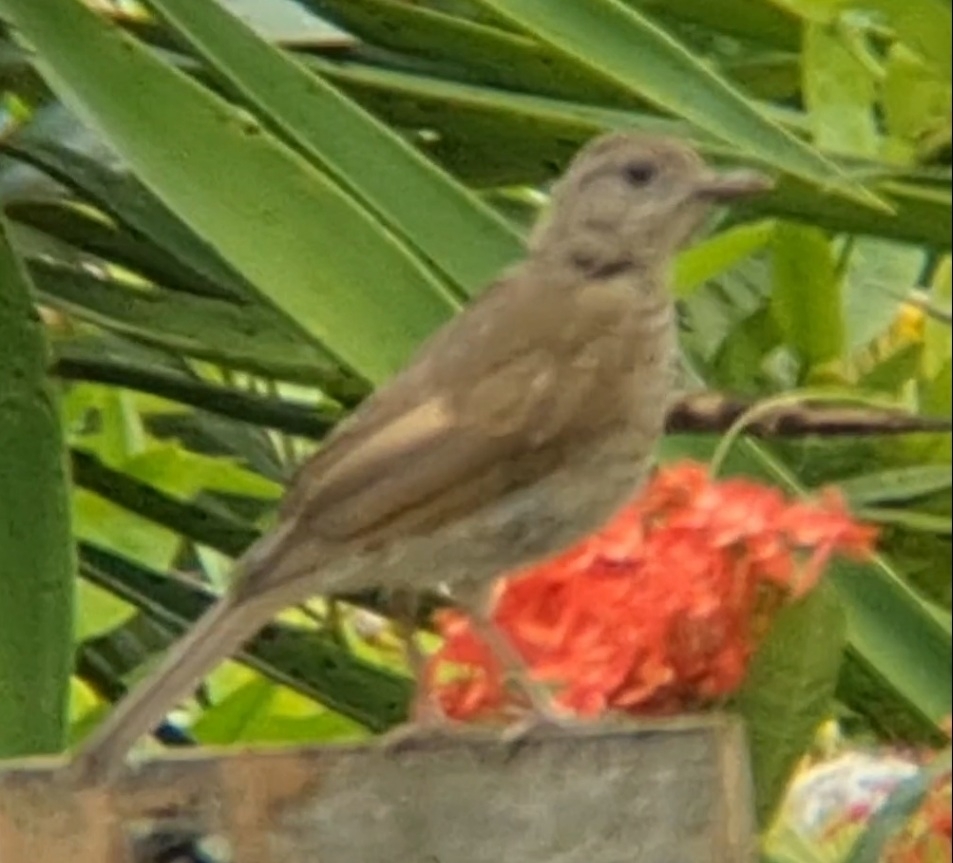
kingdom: Animalia
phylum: Chordata
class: Aves
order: Passeriformes
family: Turdidae
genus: Turdus
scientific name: Turdus leucomelas
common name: Pale-breasted thrush
